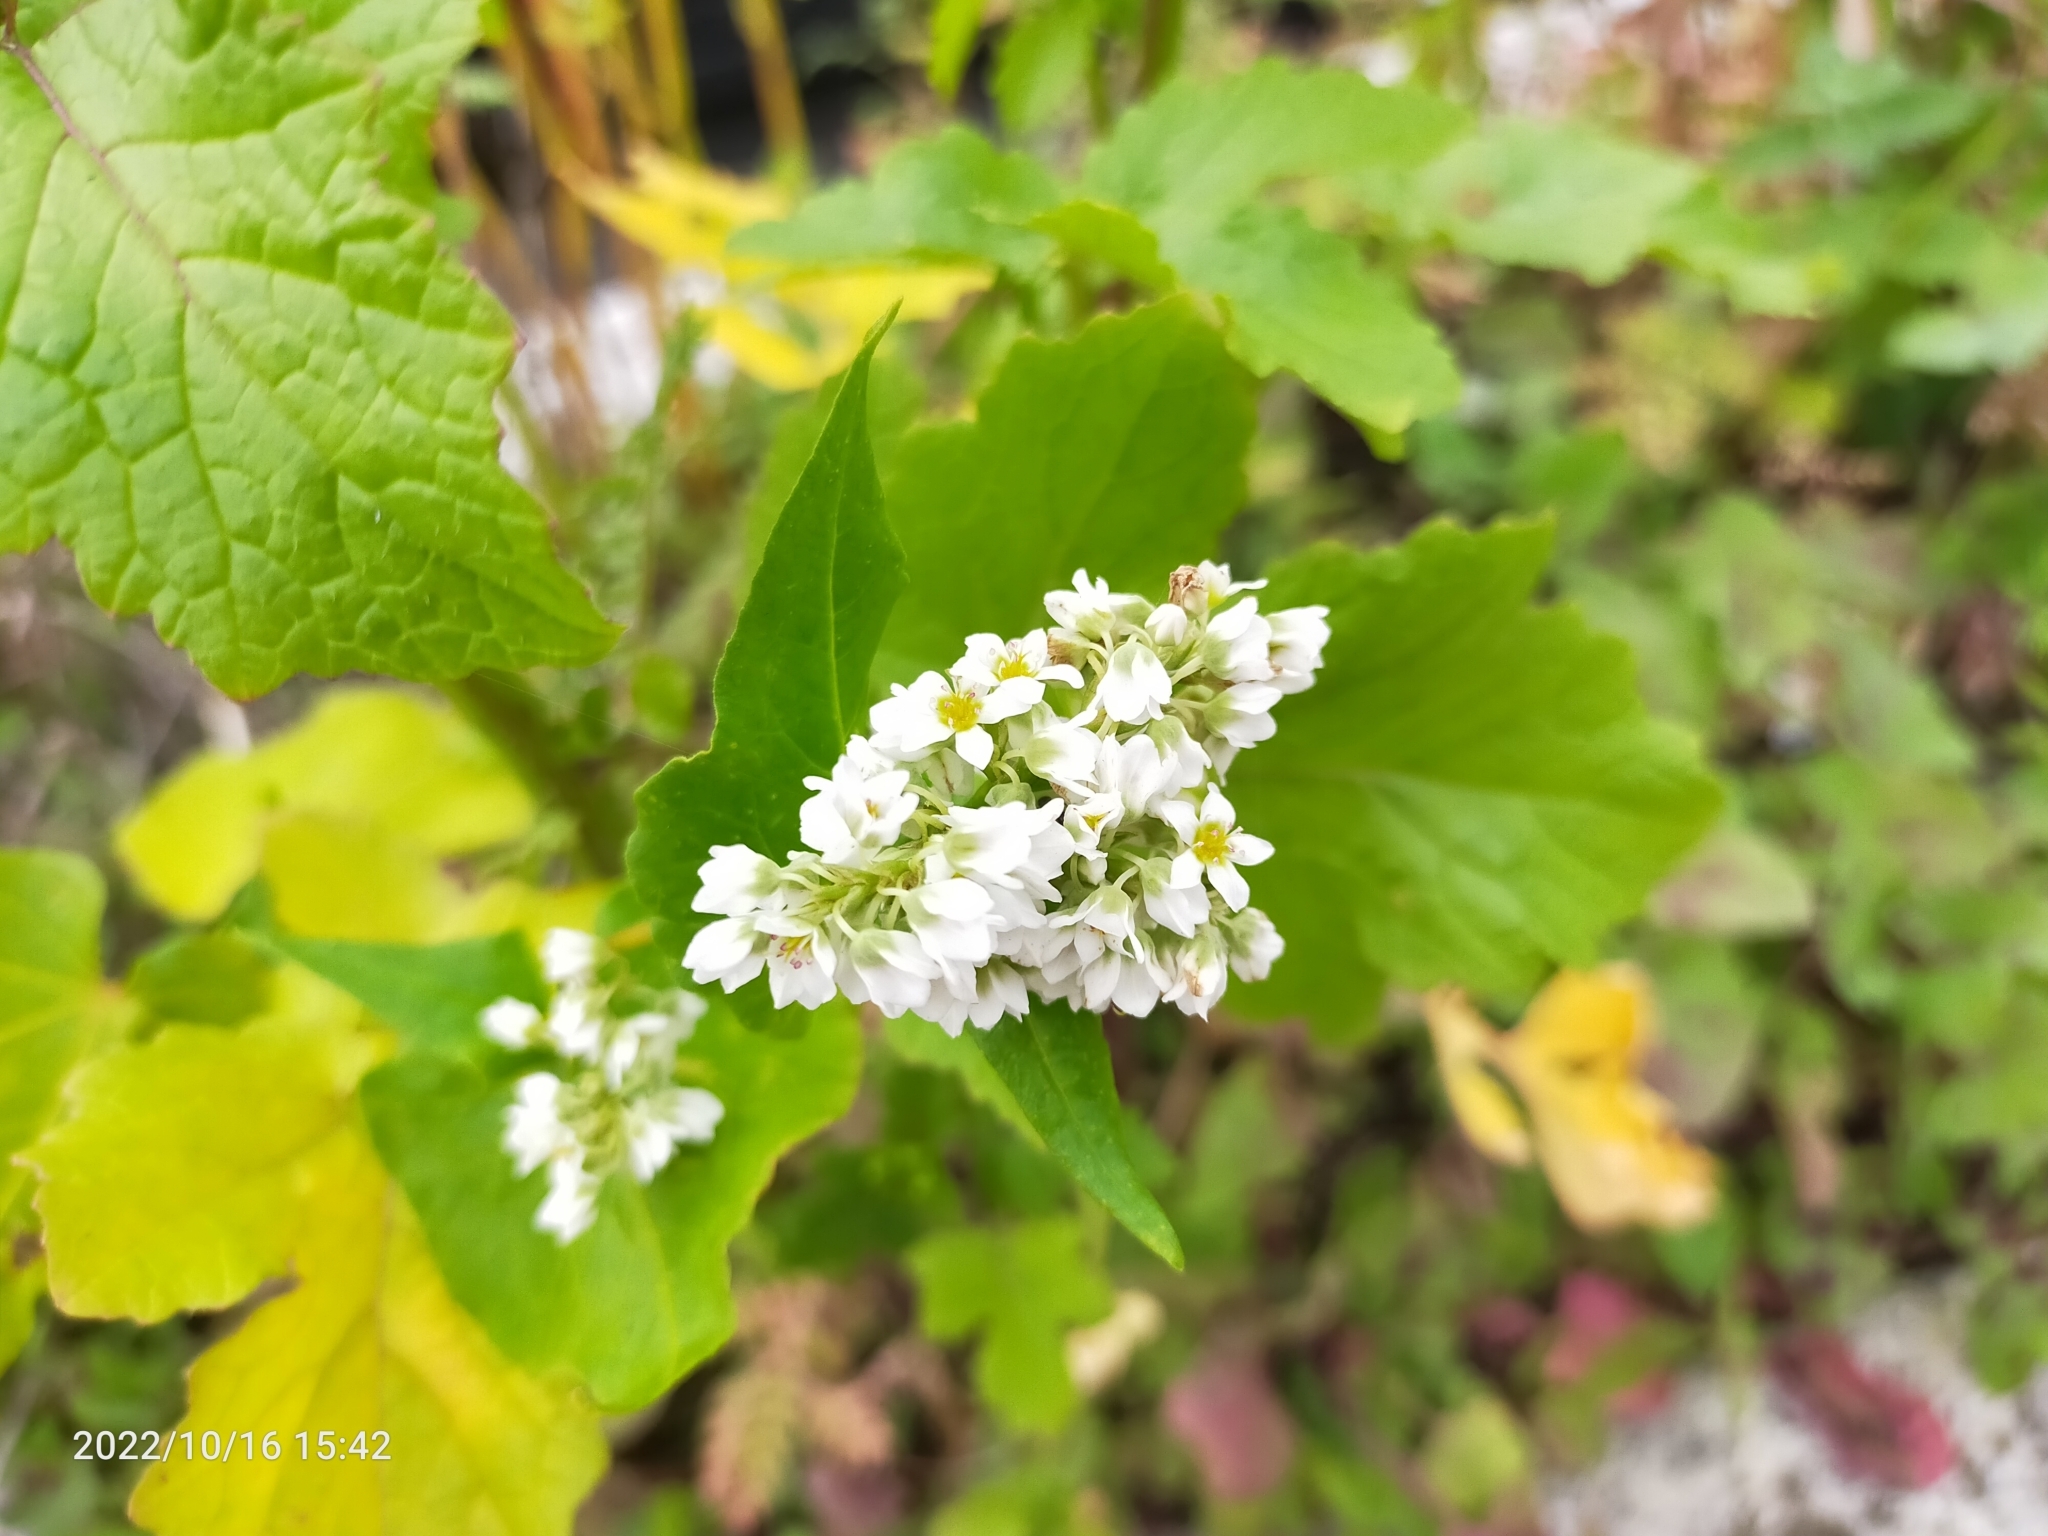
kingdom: Plantae
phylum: Tracheophyta
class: Magnoliopsida
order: Caryophyllales
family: Polygonaceae
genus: Fagopyrum
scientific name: Fagopyrum esculentum
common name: Buckwheat
